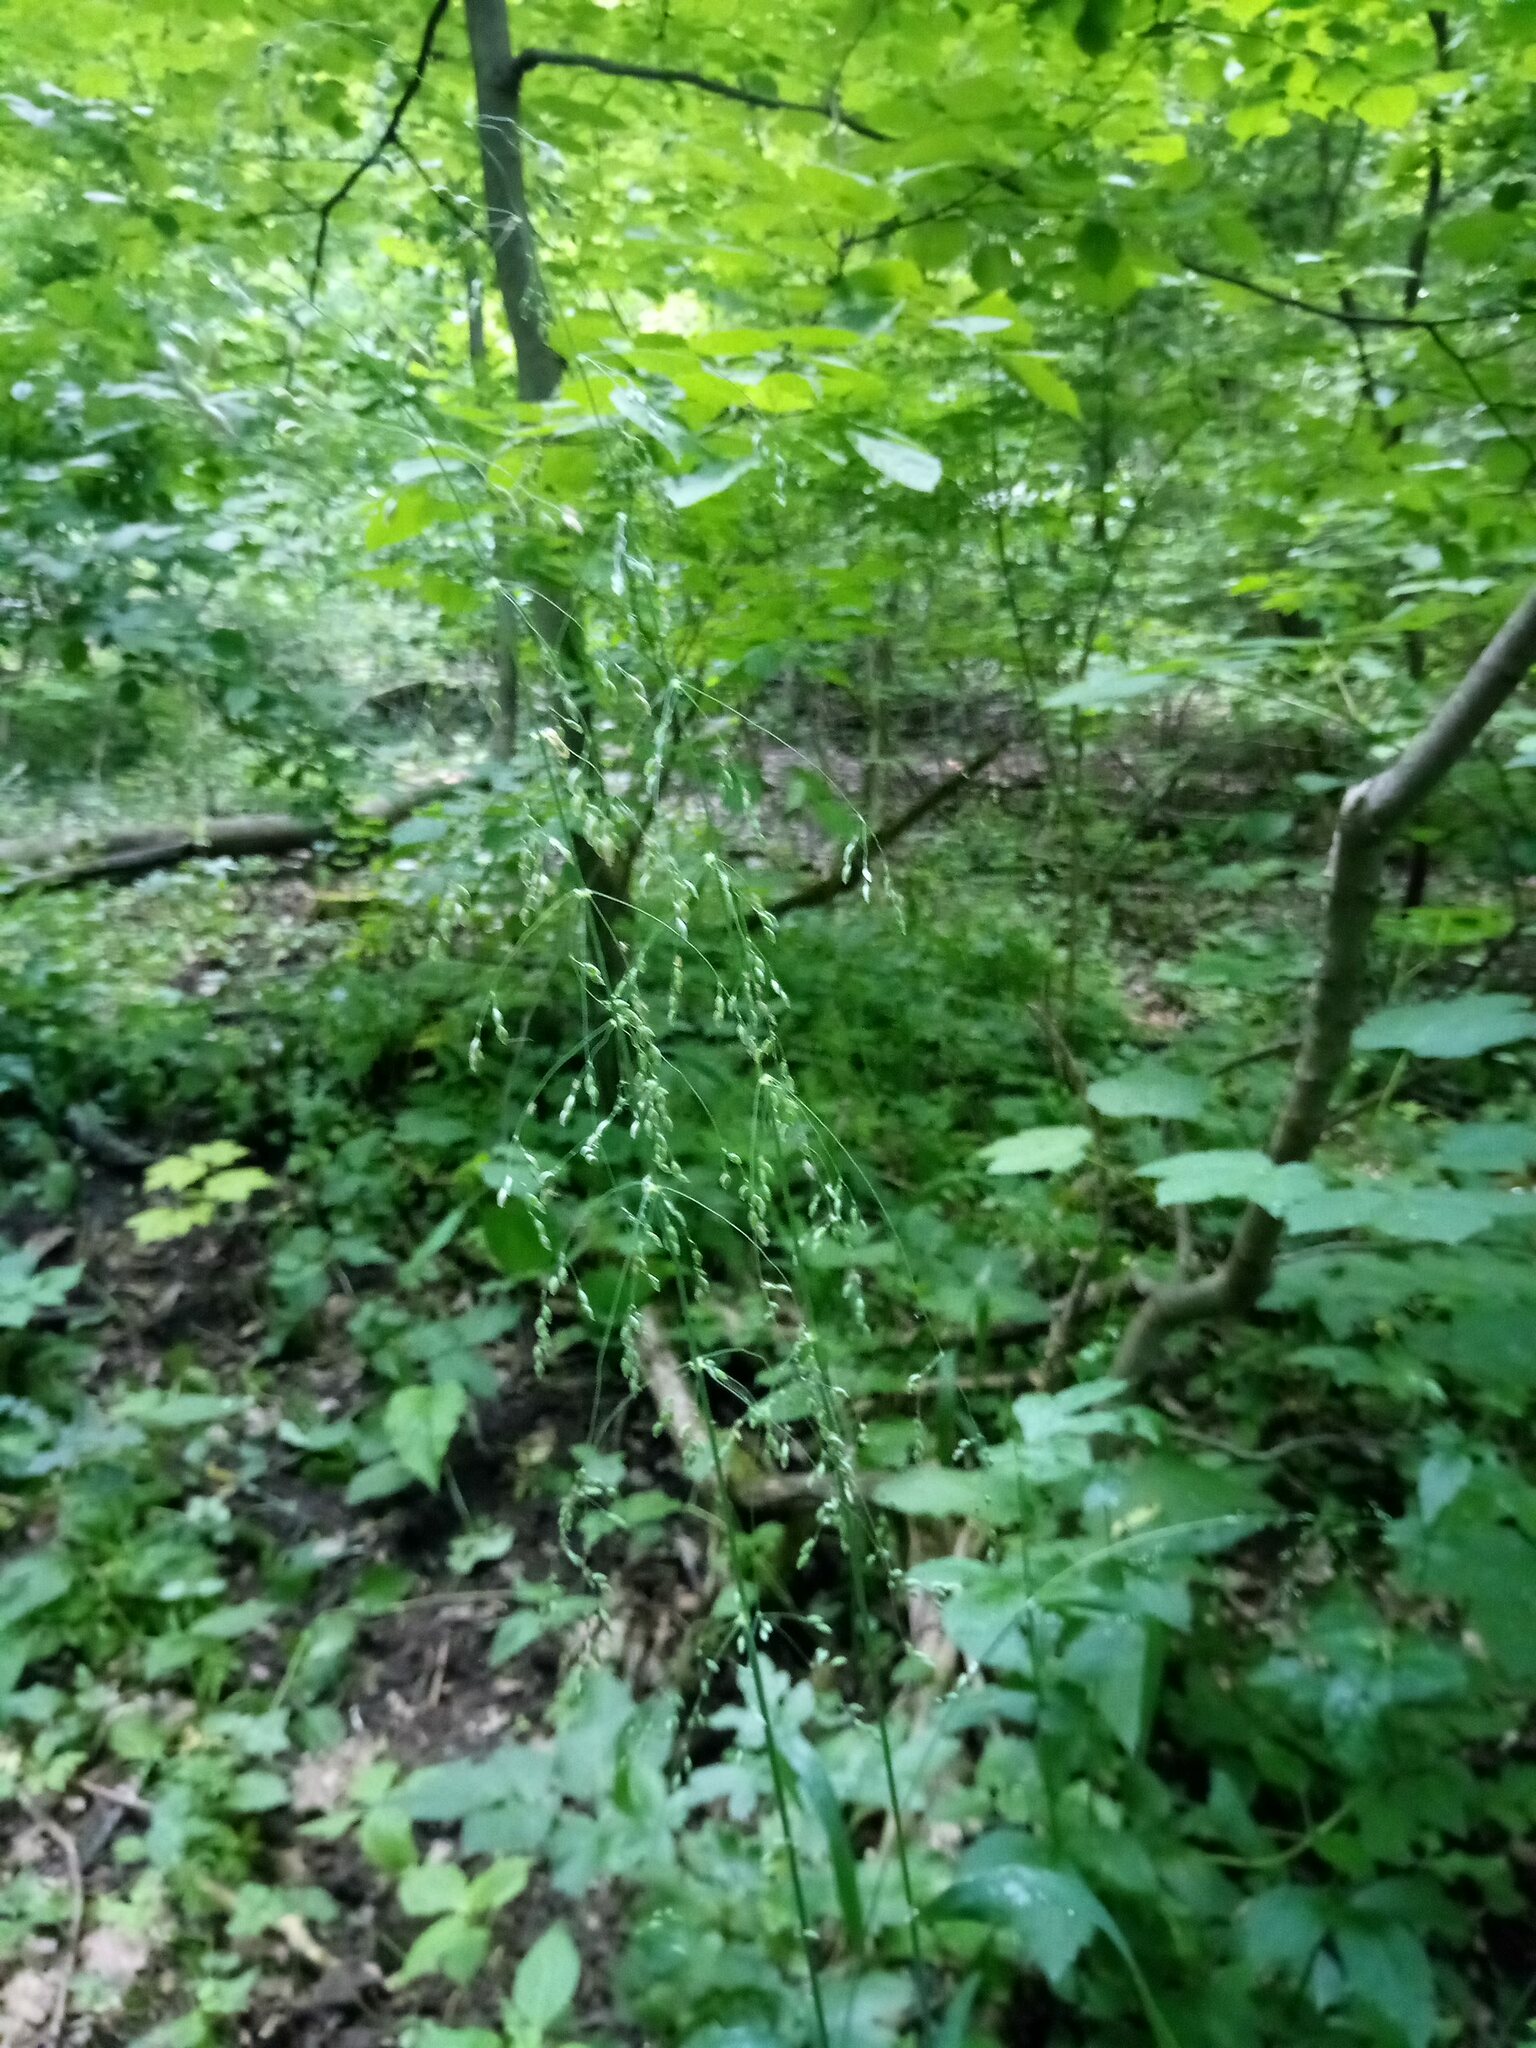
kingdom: Plantae
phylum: Tracheophyta
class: Liliopsida
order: Poales
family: Poaceae
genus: Milium
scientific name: Milium effusum
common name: Wood millet
